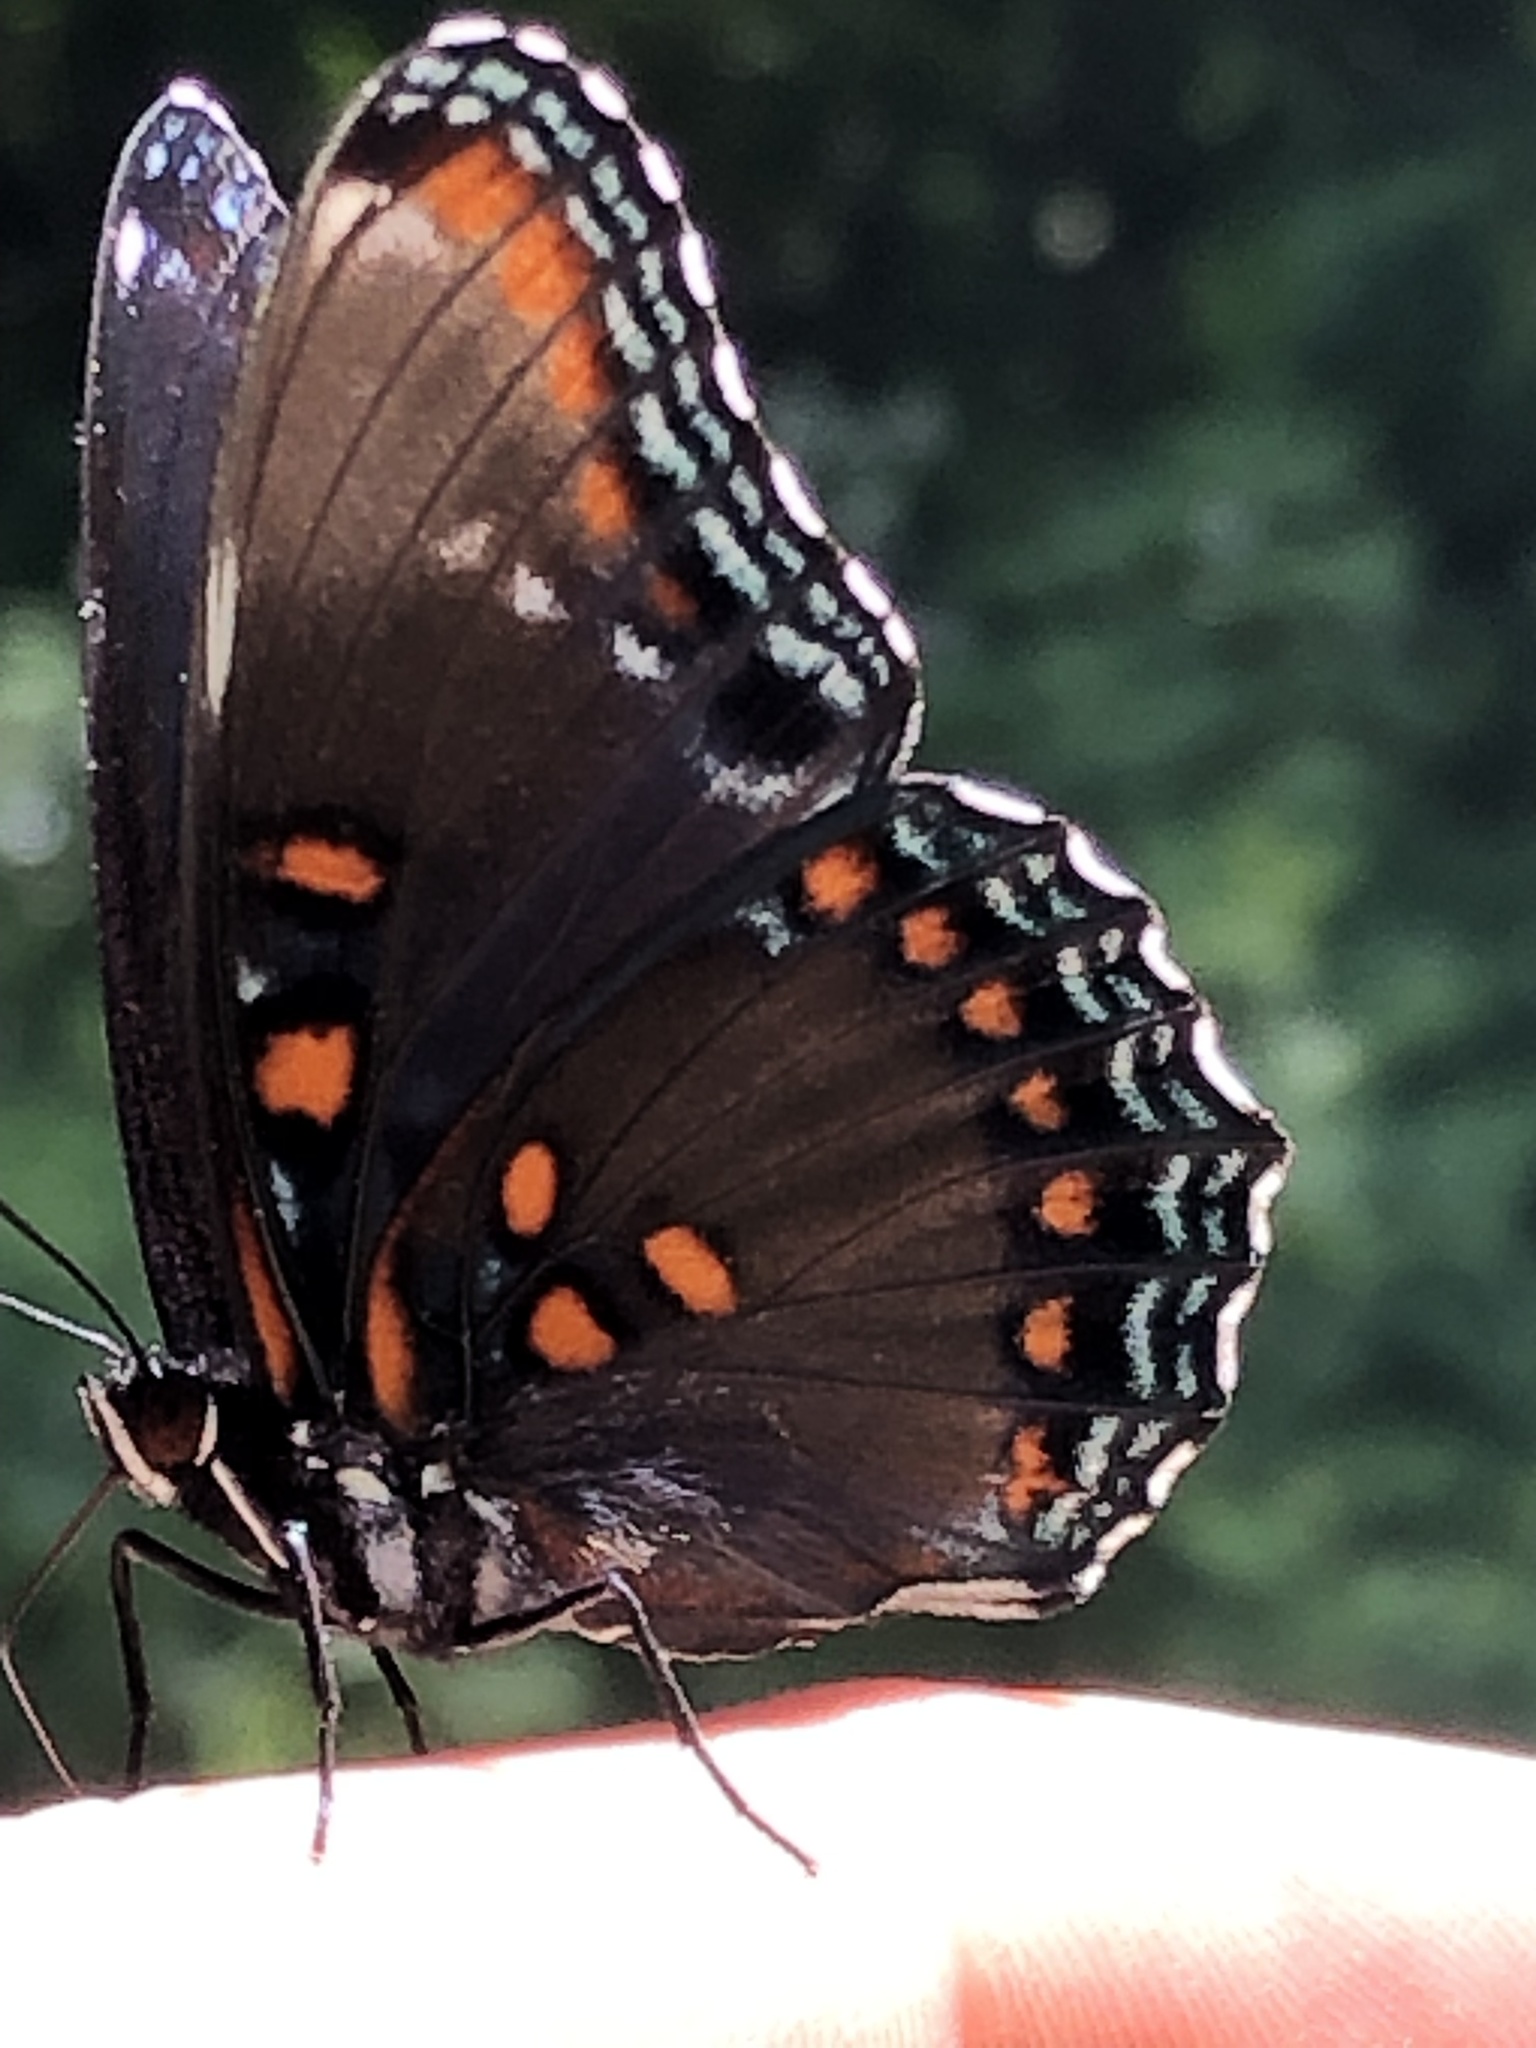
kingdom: Animalia
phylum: Arthropoda
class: Insecta
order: Lepidoptera
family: Nymphalidae
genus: Limenitis
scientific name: Limenitis
